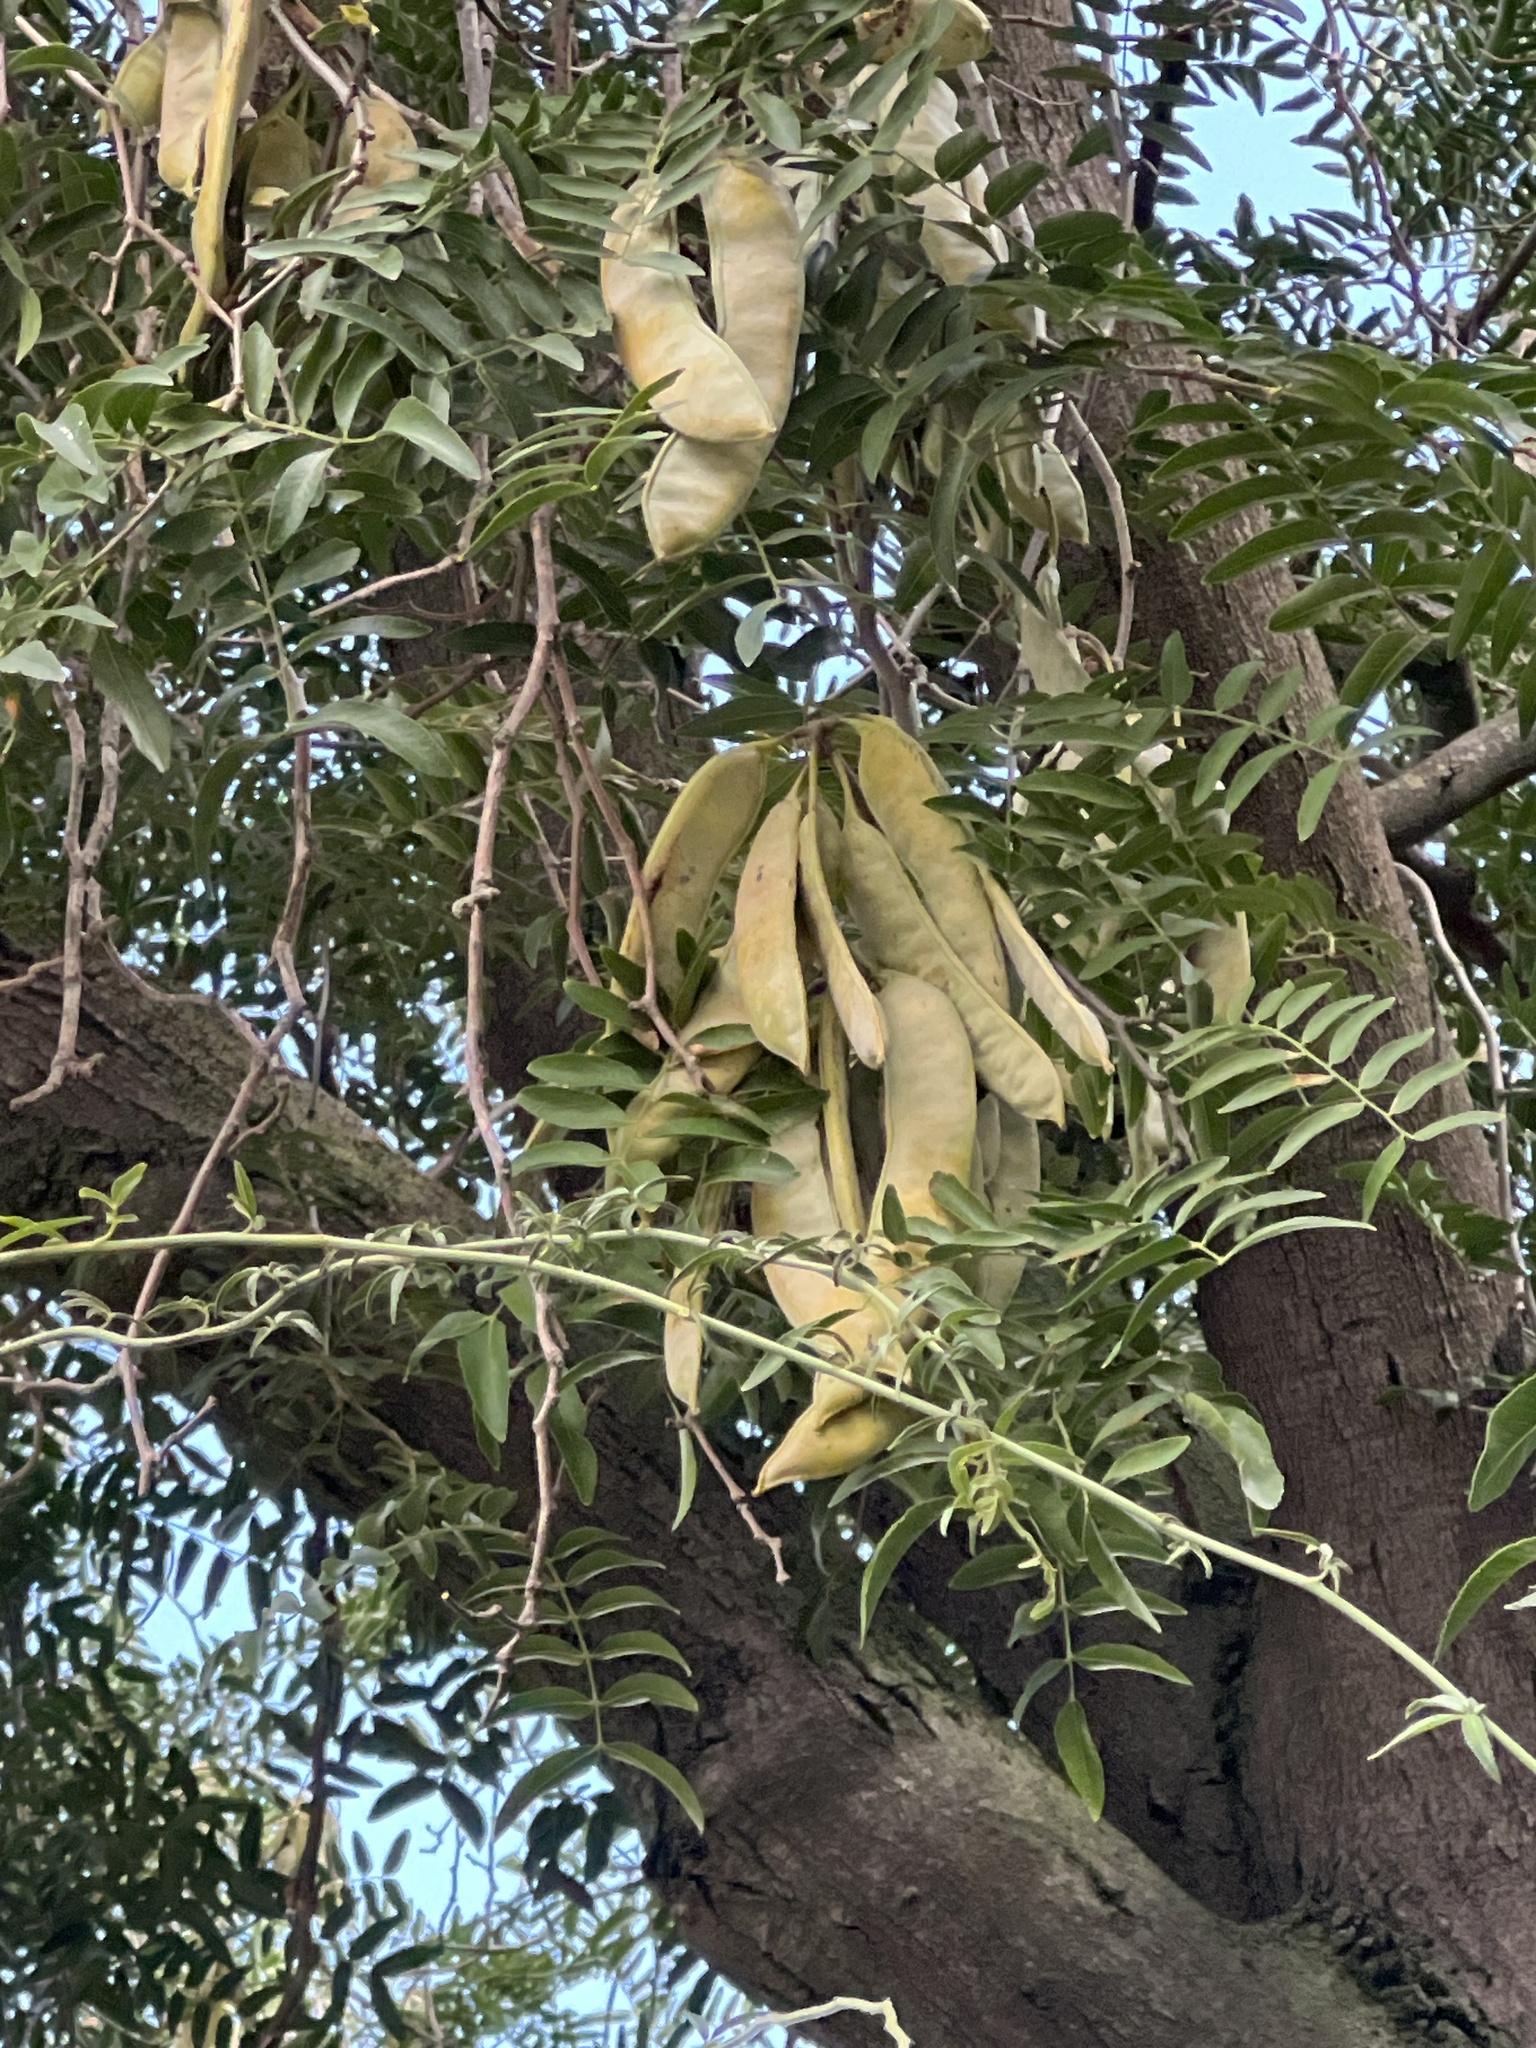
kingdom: Plantae
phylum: Tracheophyta
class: Magnoliopsida
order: Fabales
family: Fabaceae
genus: Gleditsia
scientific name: Gleditsia triacanthos
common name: Common honeylocust
